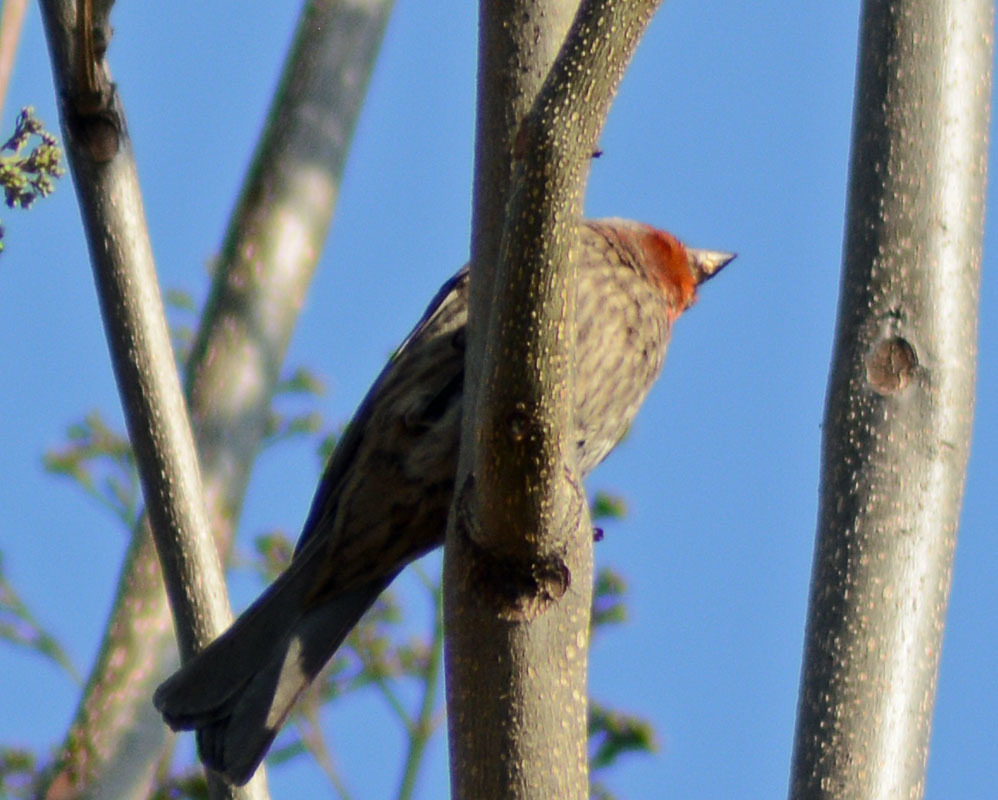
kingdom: Animalia
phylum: Chordata
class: Aves
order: Passeriformes
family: Fringillidae
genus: Haemorhous
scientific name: Haemorhous mexicanus
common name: House finch
